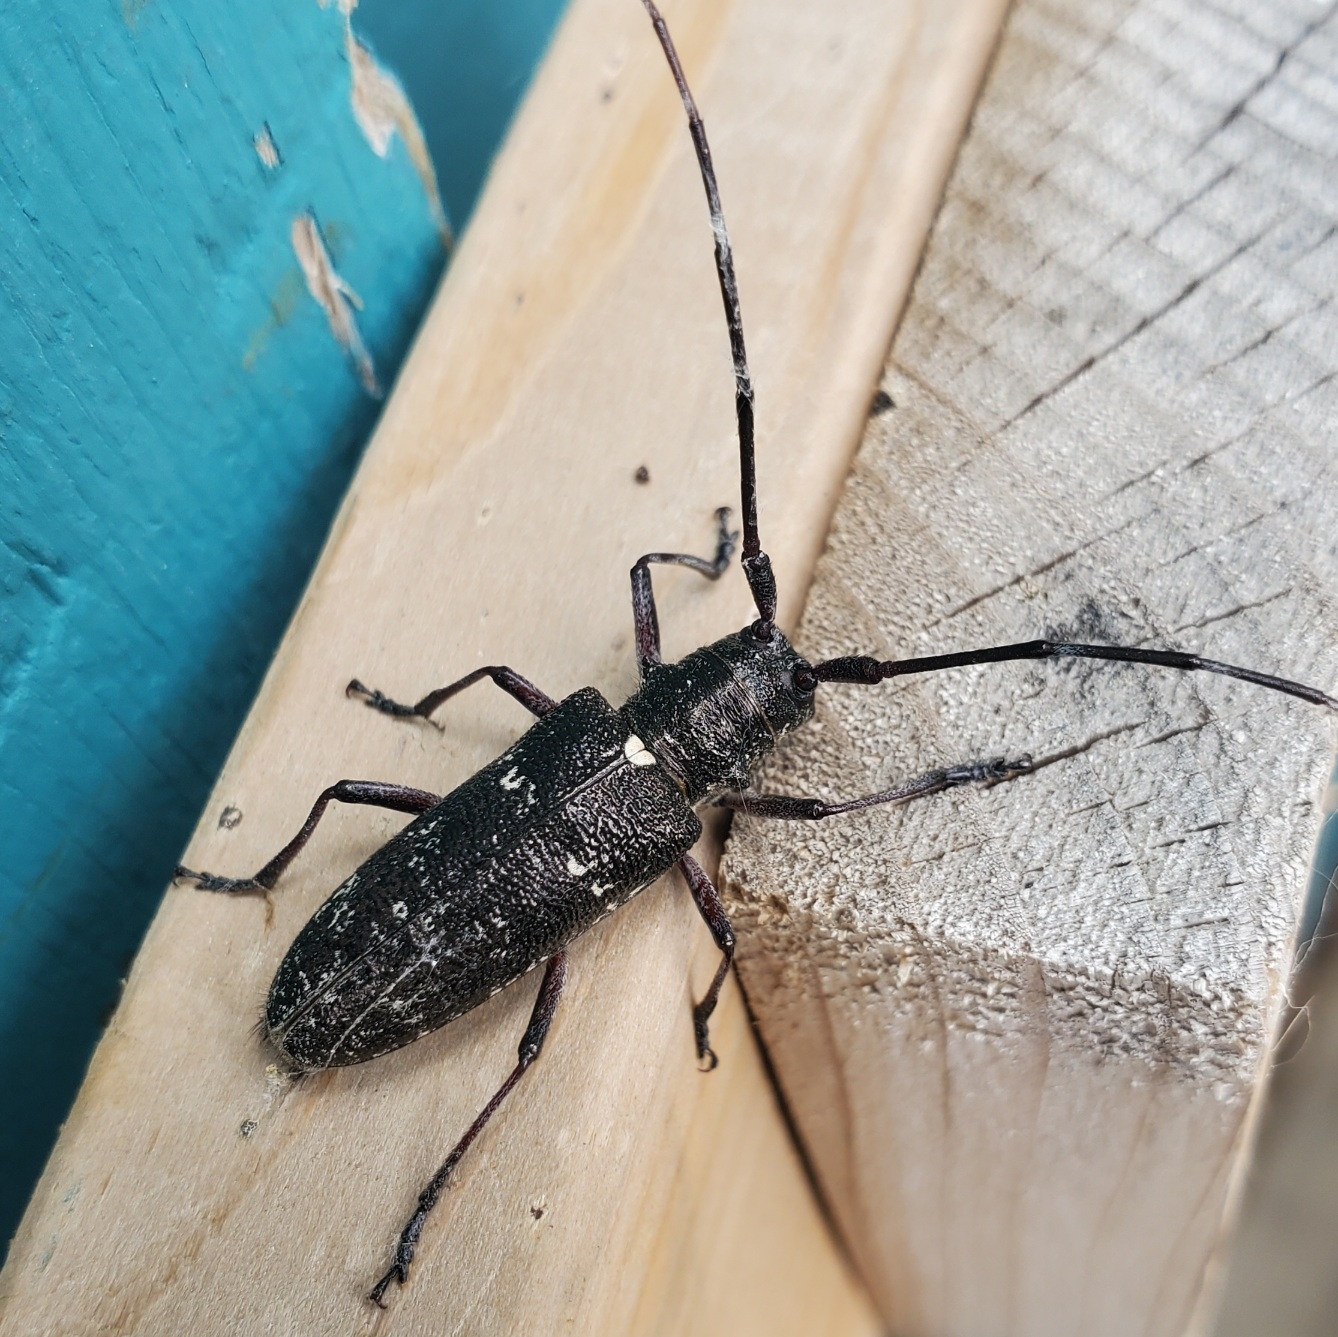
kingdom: Animalia
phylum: Arthropoda
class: Insecta
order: Coleoptera
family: Cerambycidae
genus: Monochamus
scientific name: Monochamus scutellatus
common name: White-spotted sawyer beetle
